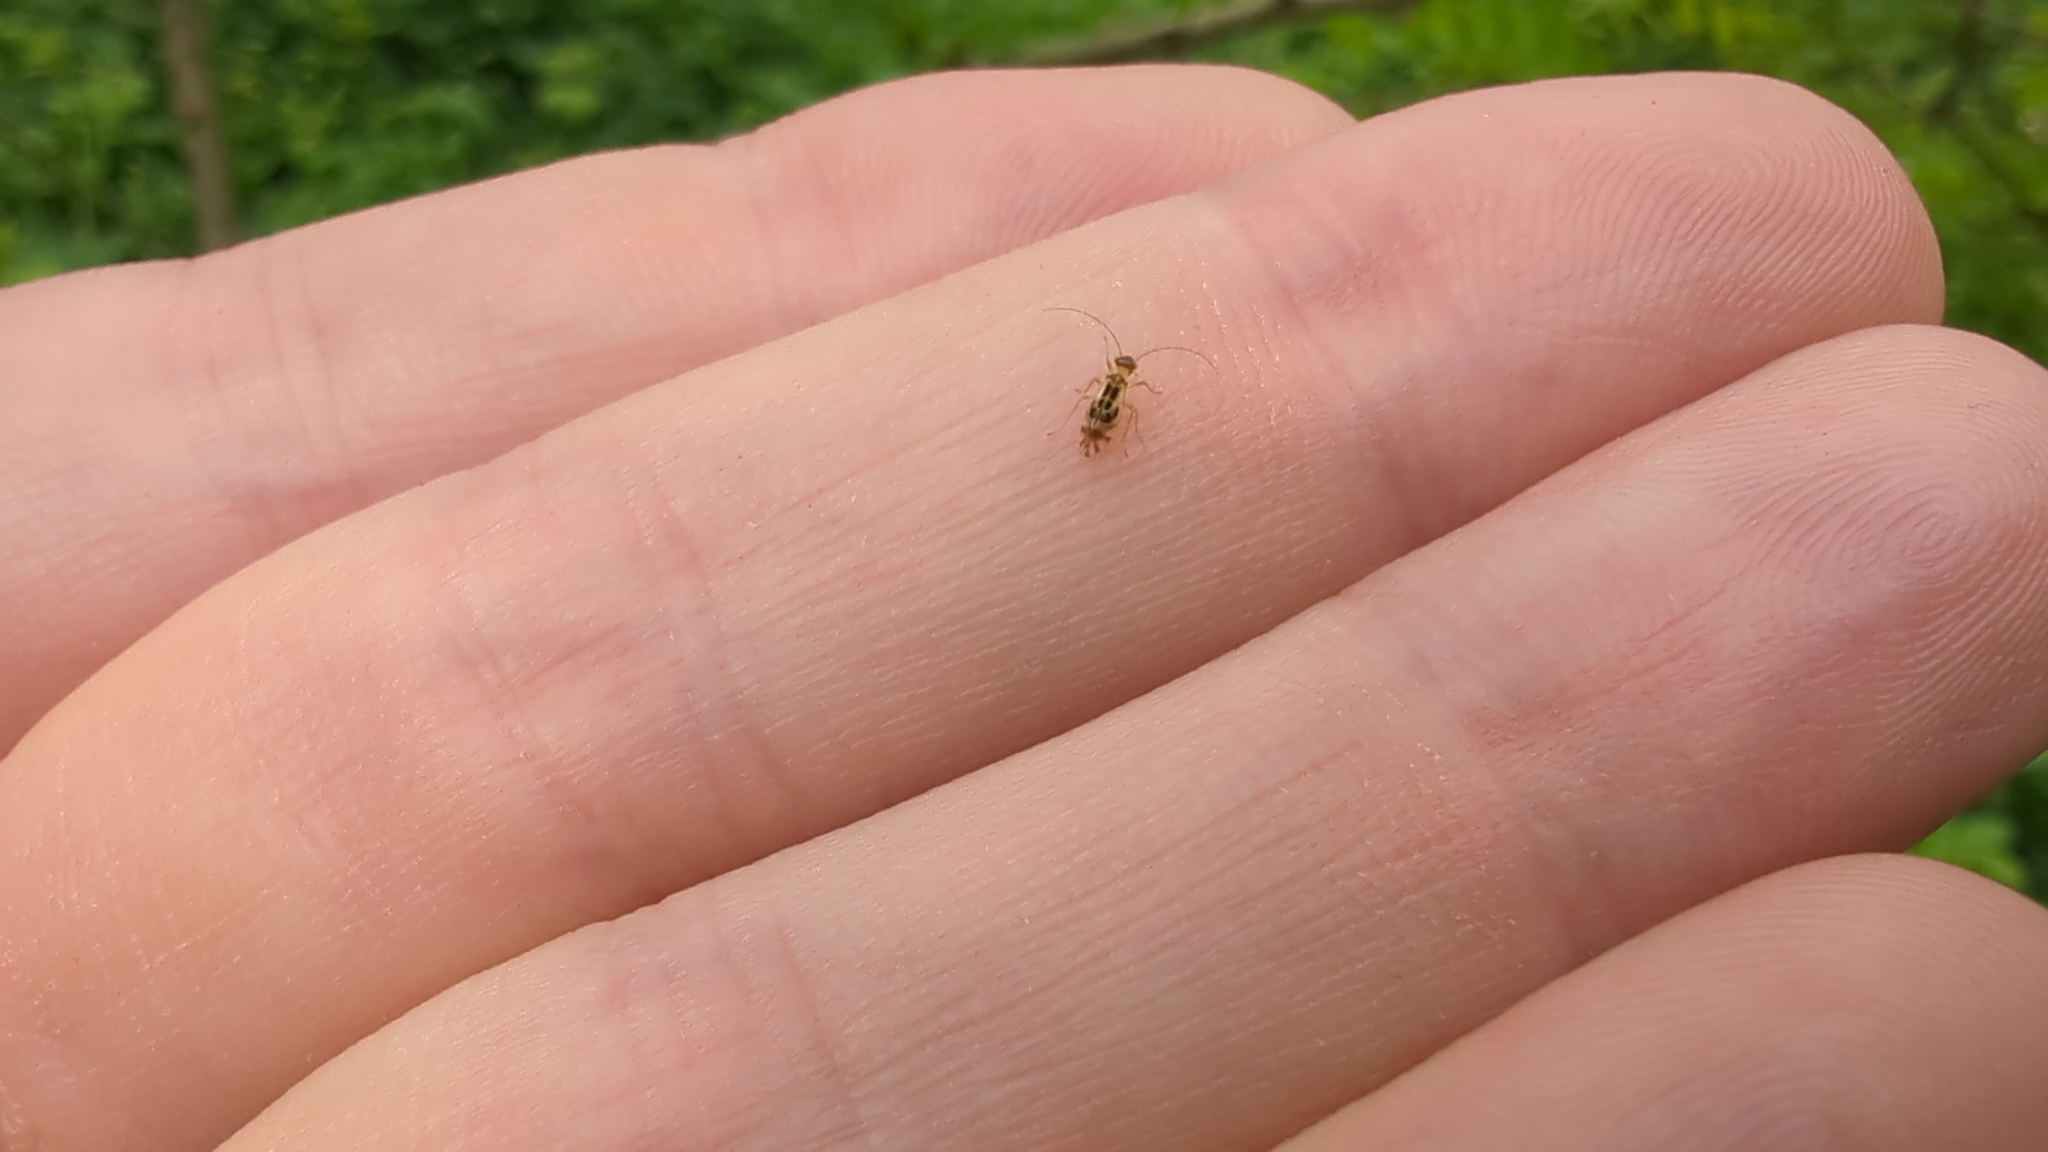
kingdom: Animalia
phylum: Arthropoda
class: Insecta
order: Psocodea
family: Stenopsocidae
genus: Graphopsocus
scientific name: Graphopsocus cruciatus
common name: Lizard bark louse
